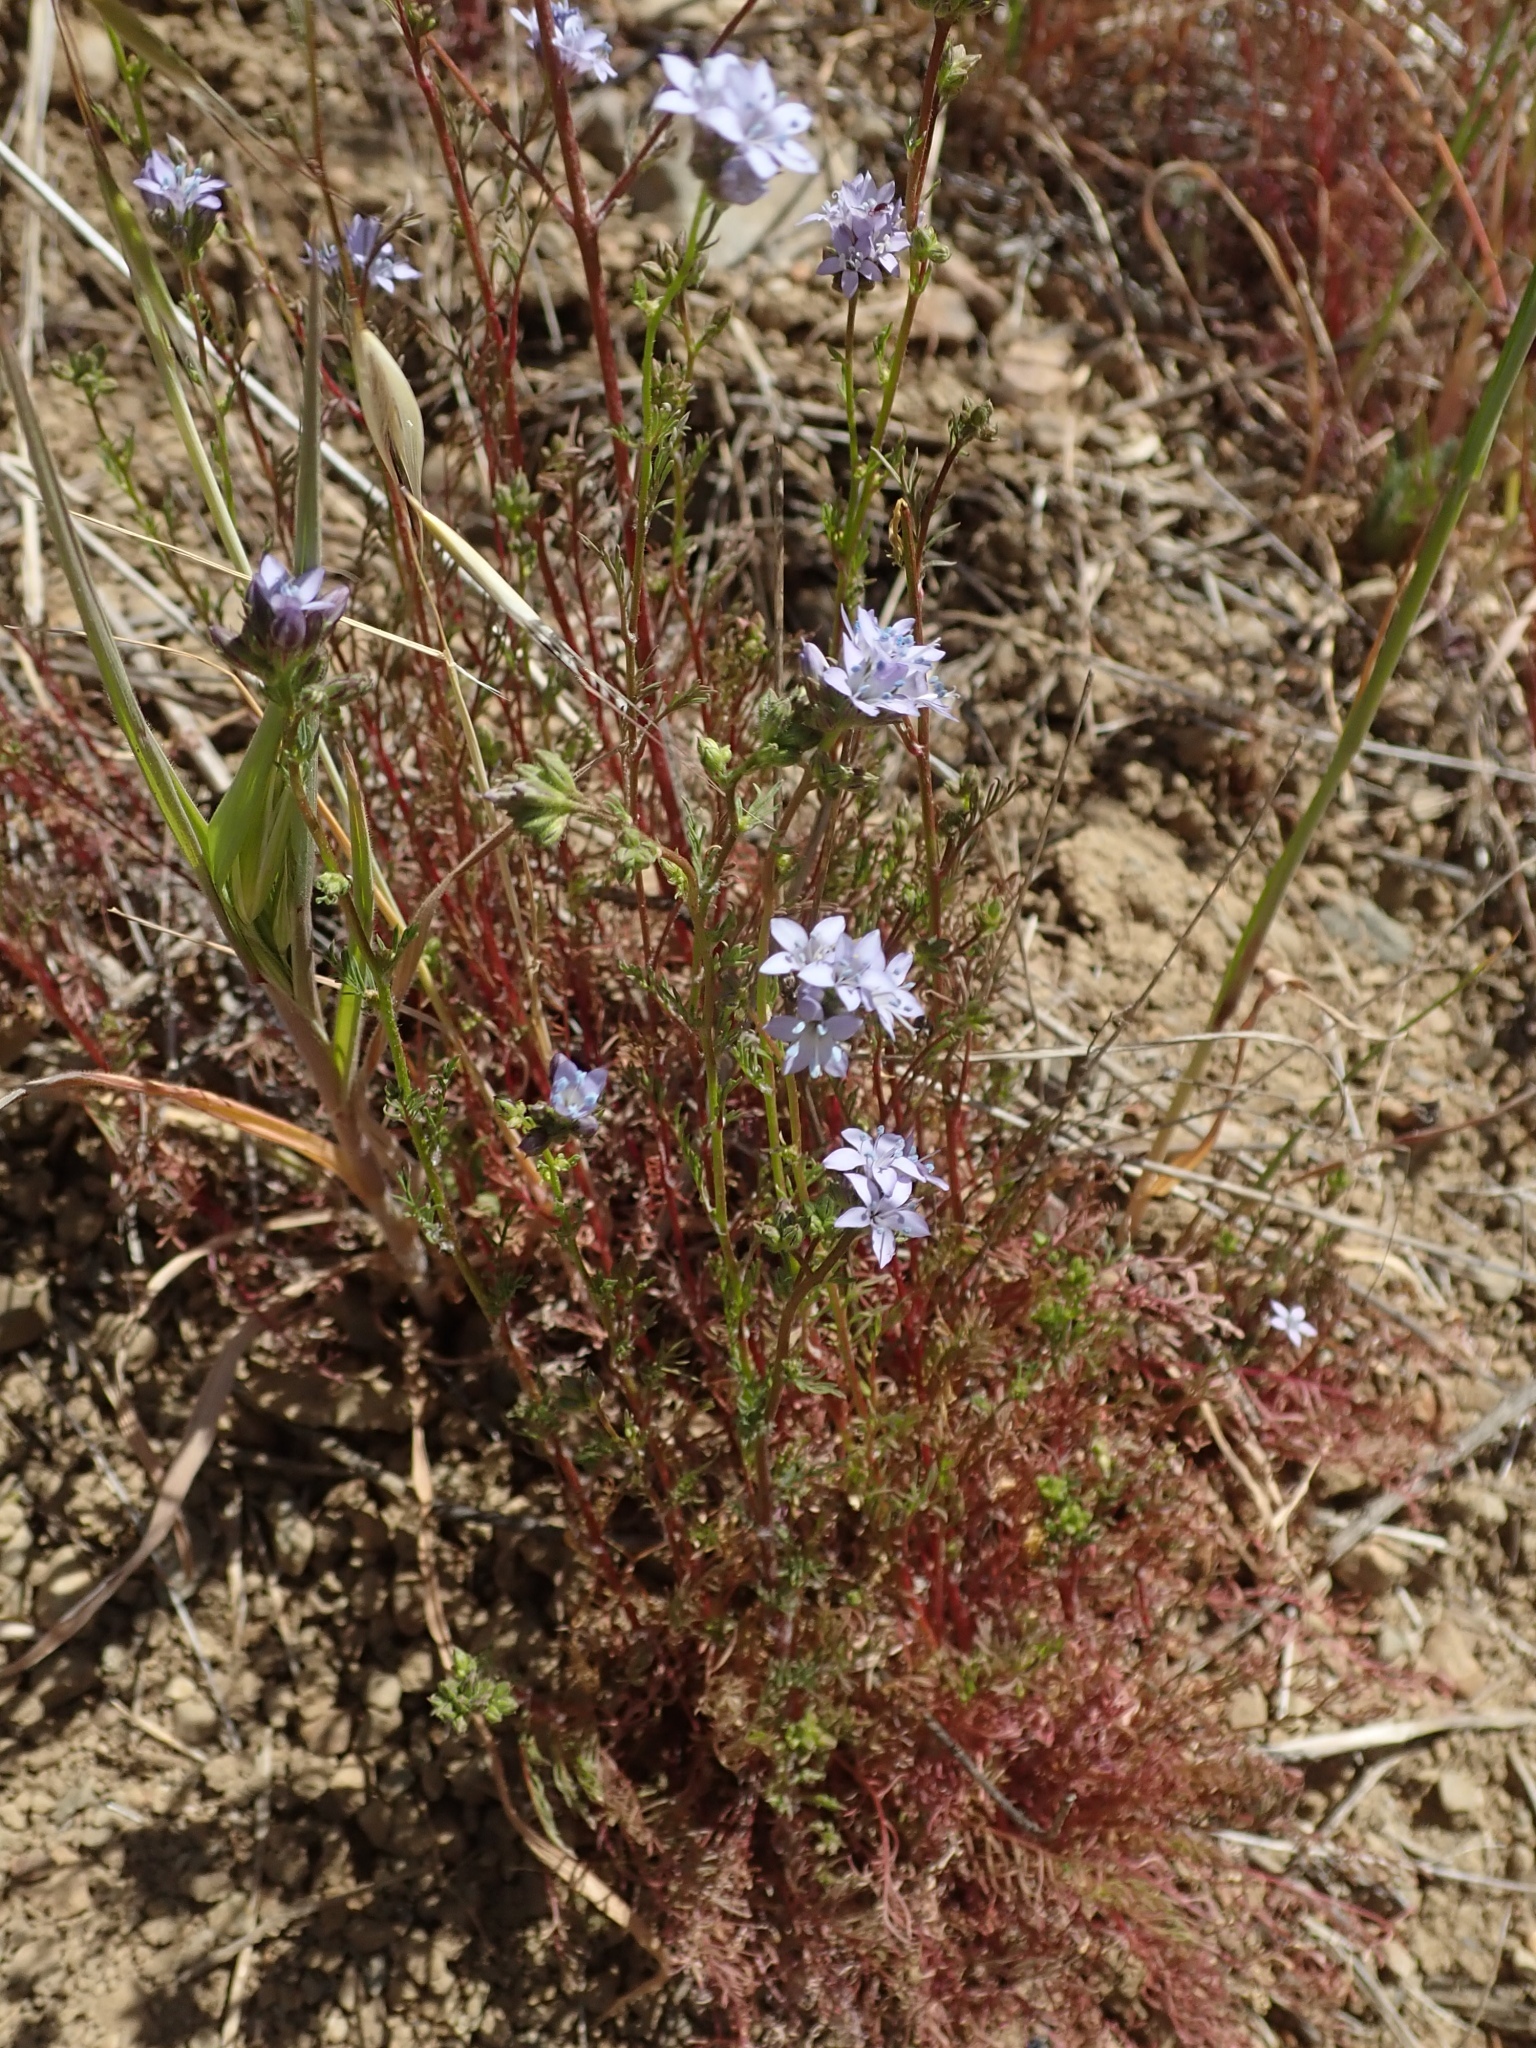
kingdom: Plantae
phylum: Tracheophyta
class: Magnoliopsida
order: Ericales
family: Polemoniaceae
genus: Gilia
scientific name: Gilia achilleifolia
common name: California gily-flower
